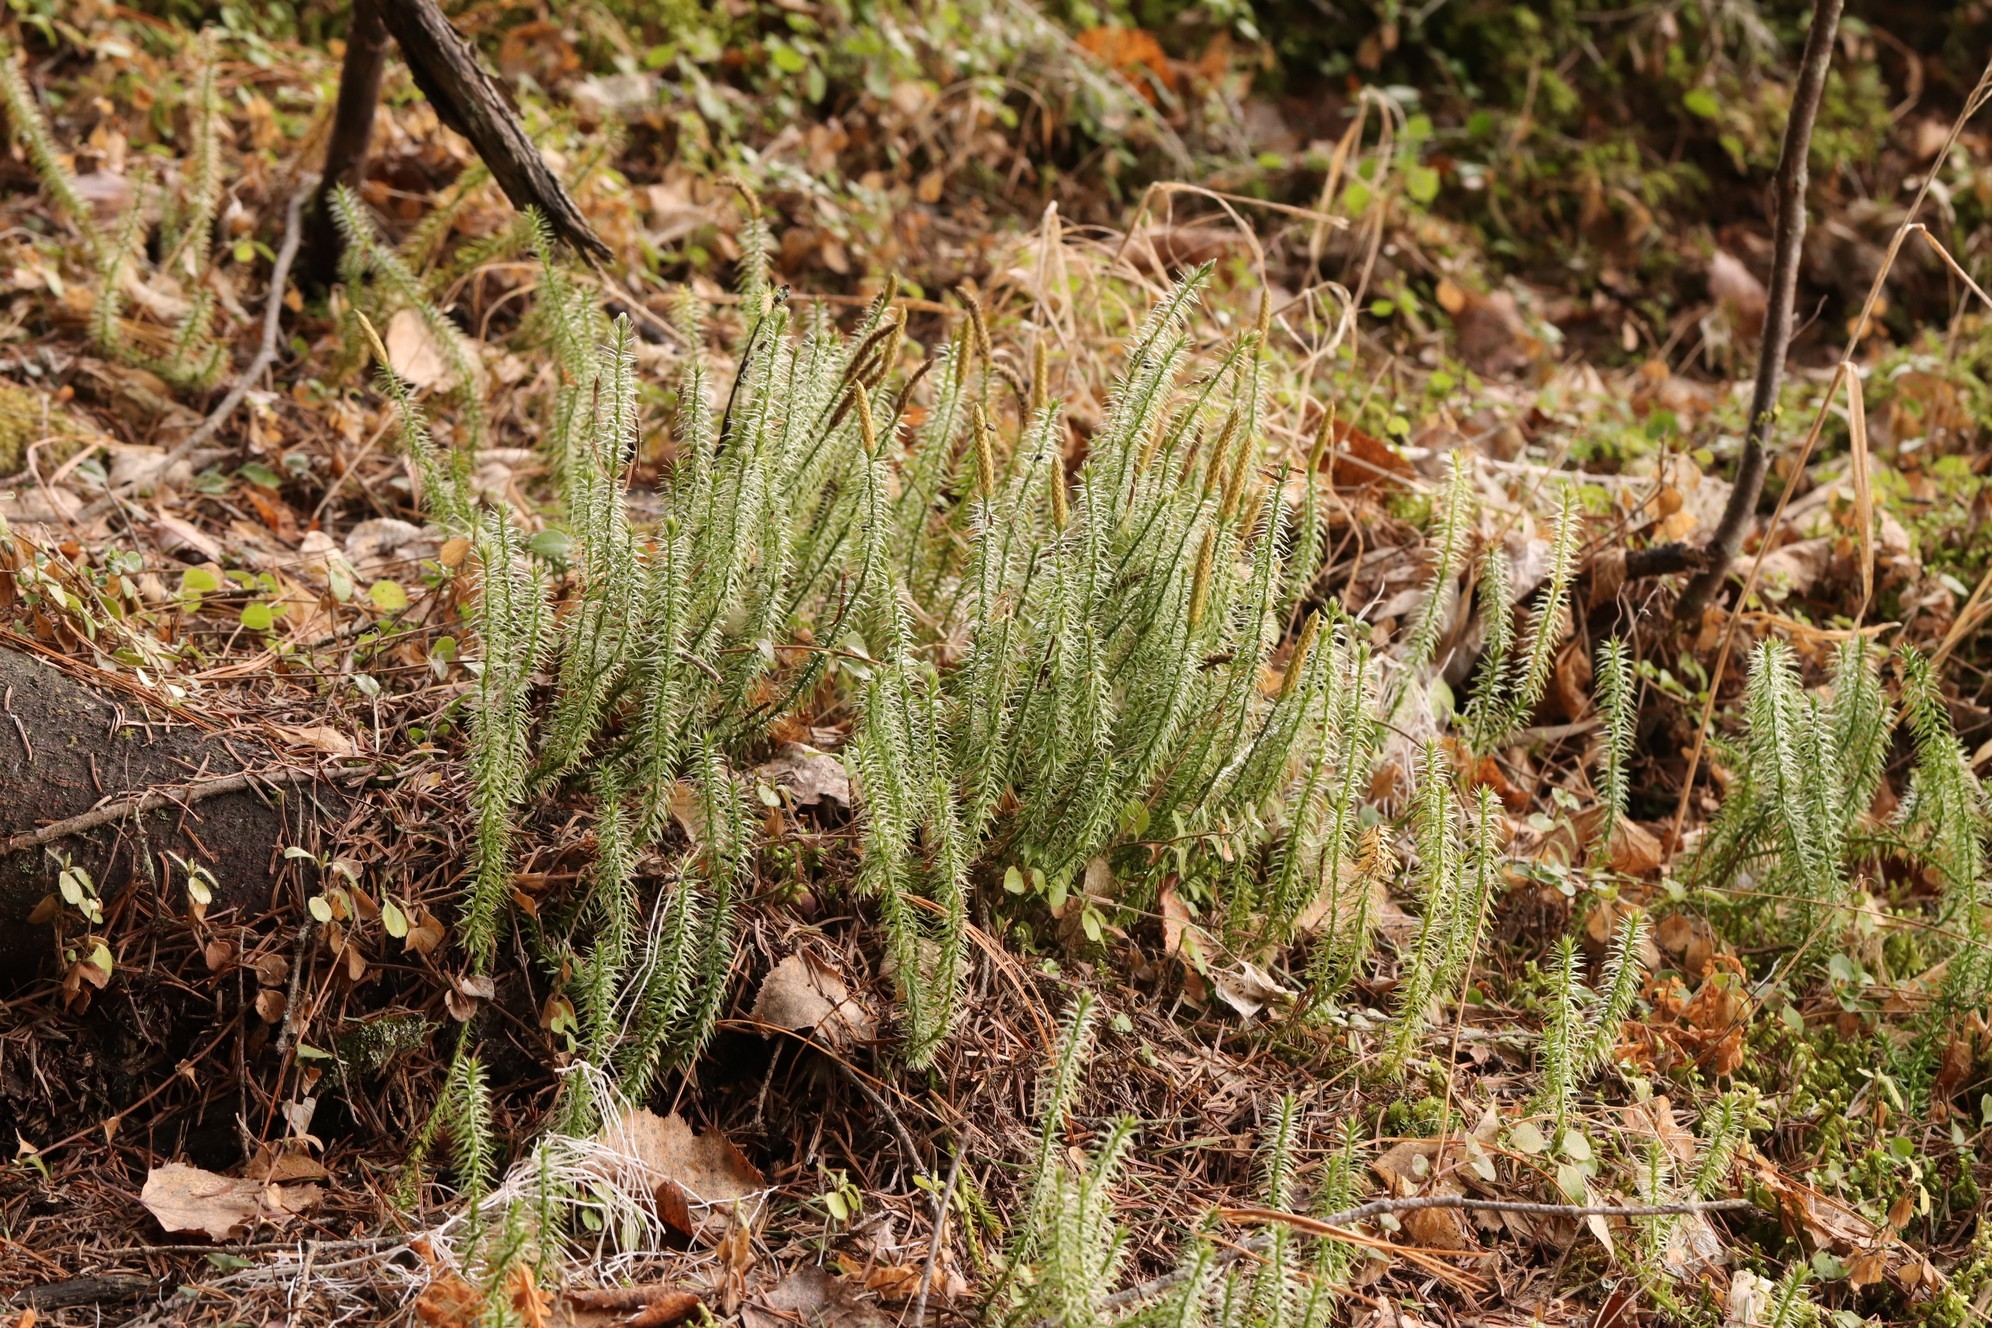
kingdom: Plantae
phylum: Tracheophyta
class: Lycopodiopsida
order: Lycopodiales
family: Lycopodiaceae
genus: Spinulum
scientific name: Spinulum annotinum
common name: Interrupted club-moss
